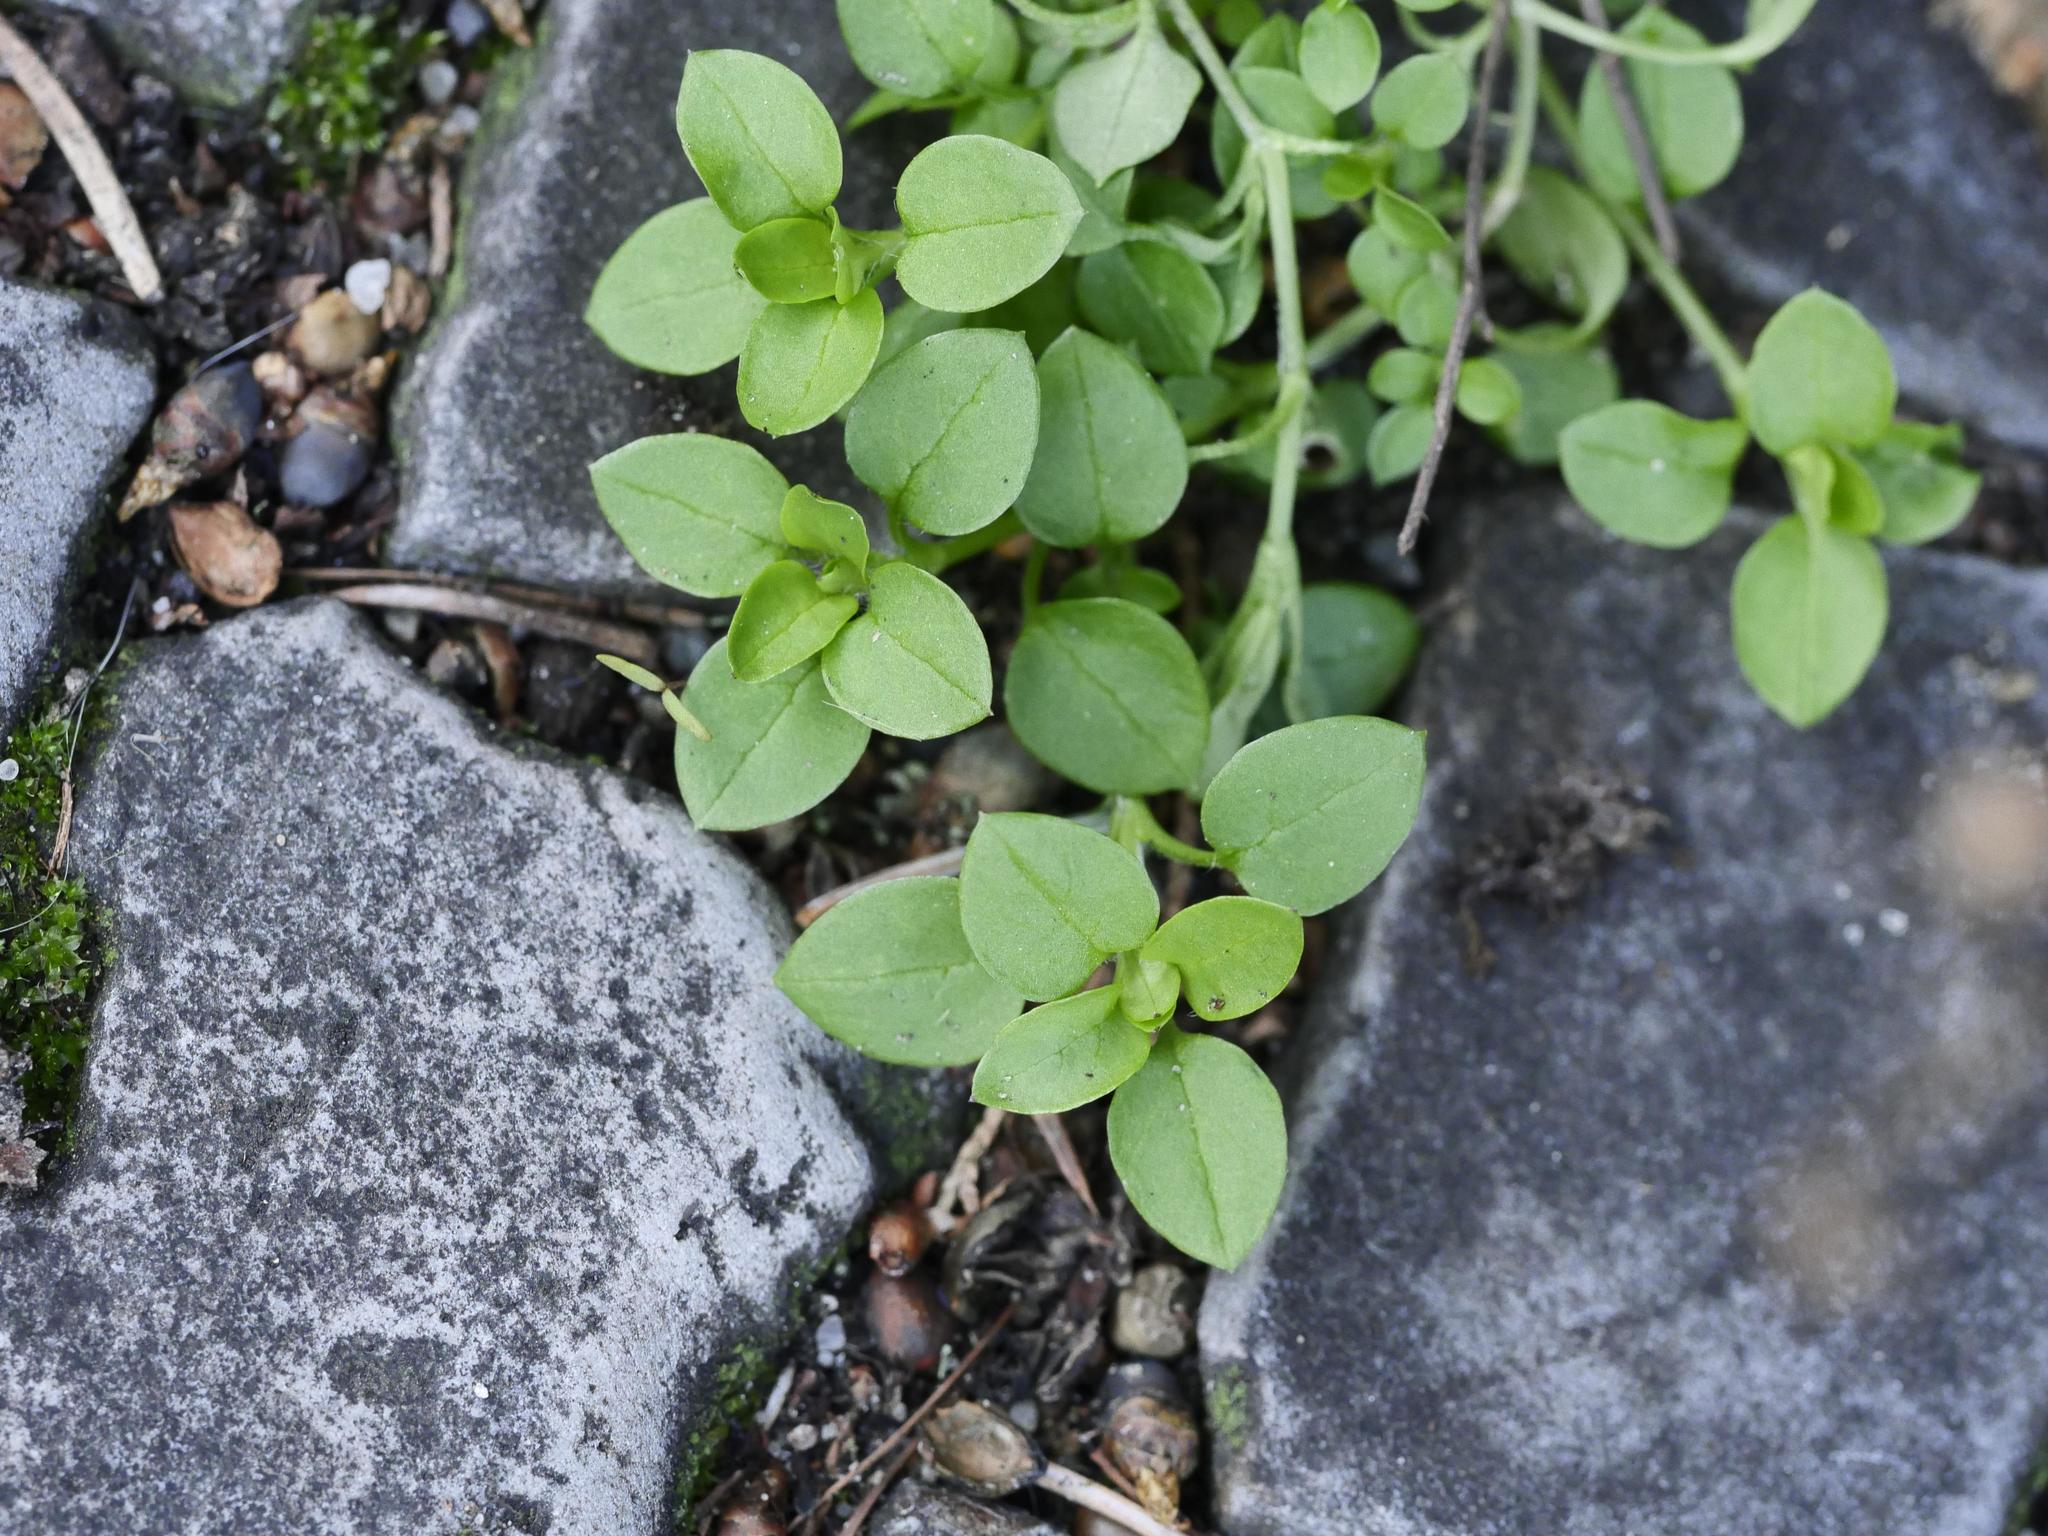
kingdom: Plantae
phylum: Tracheophyta
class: Magnoliopsida
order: Caryophyllales
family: Caryophyllaceae
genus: Stellaria
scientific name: Stellaria media
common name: Common chickweed
